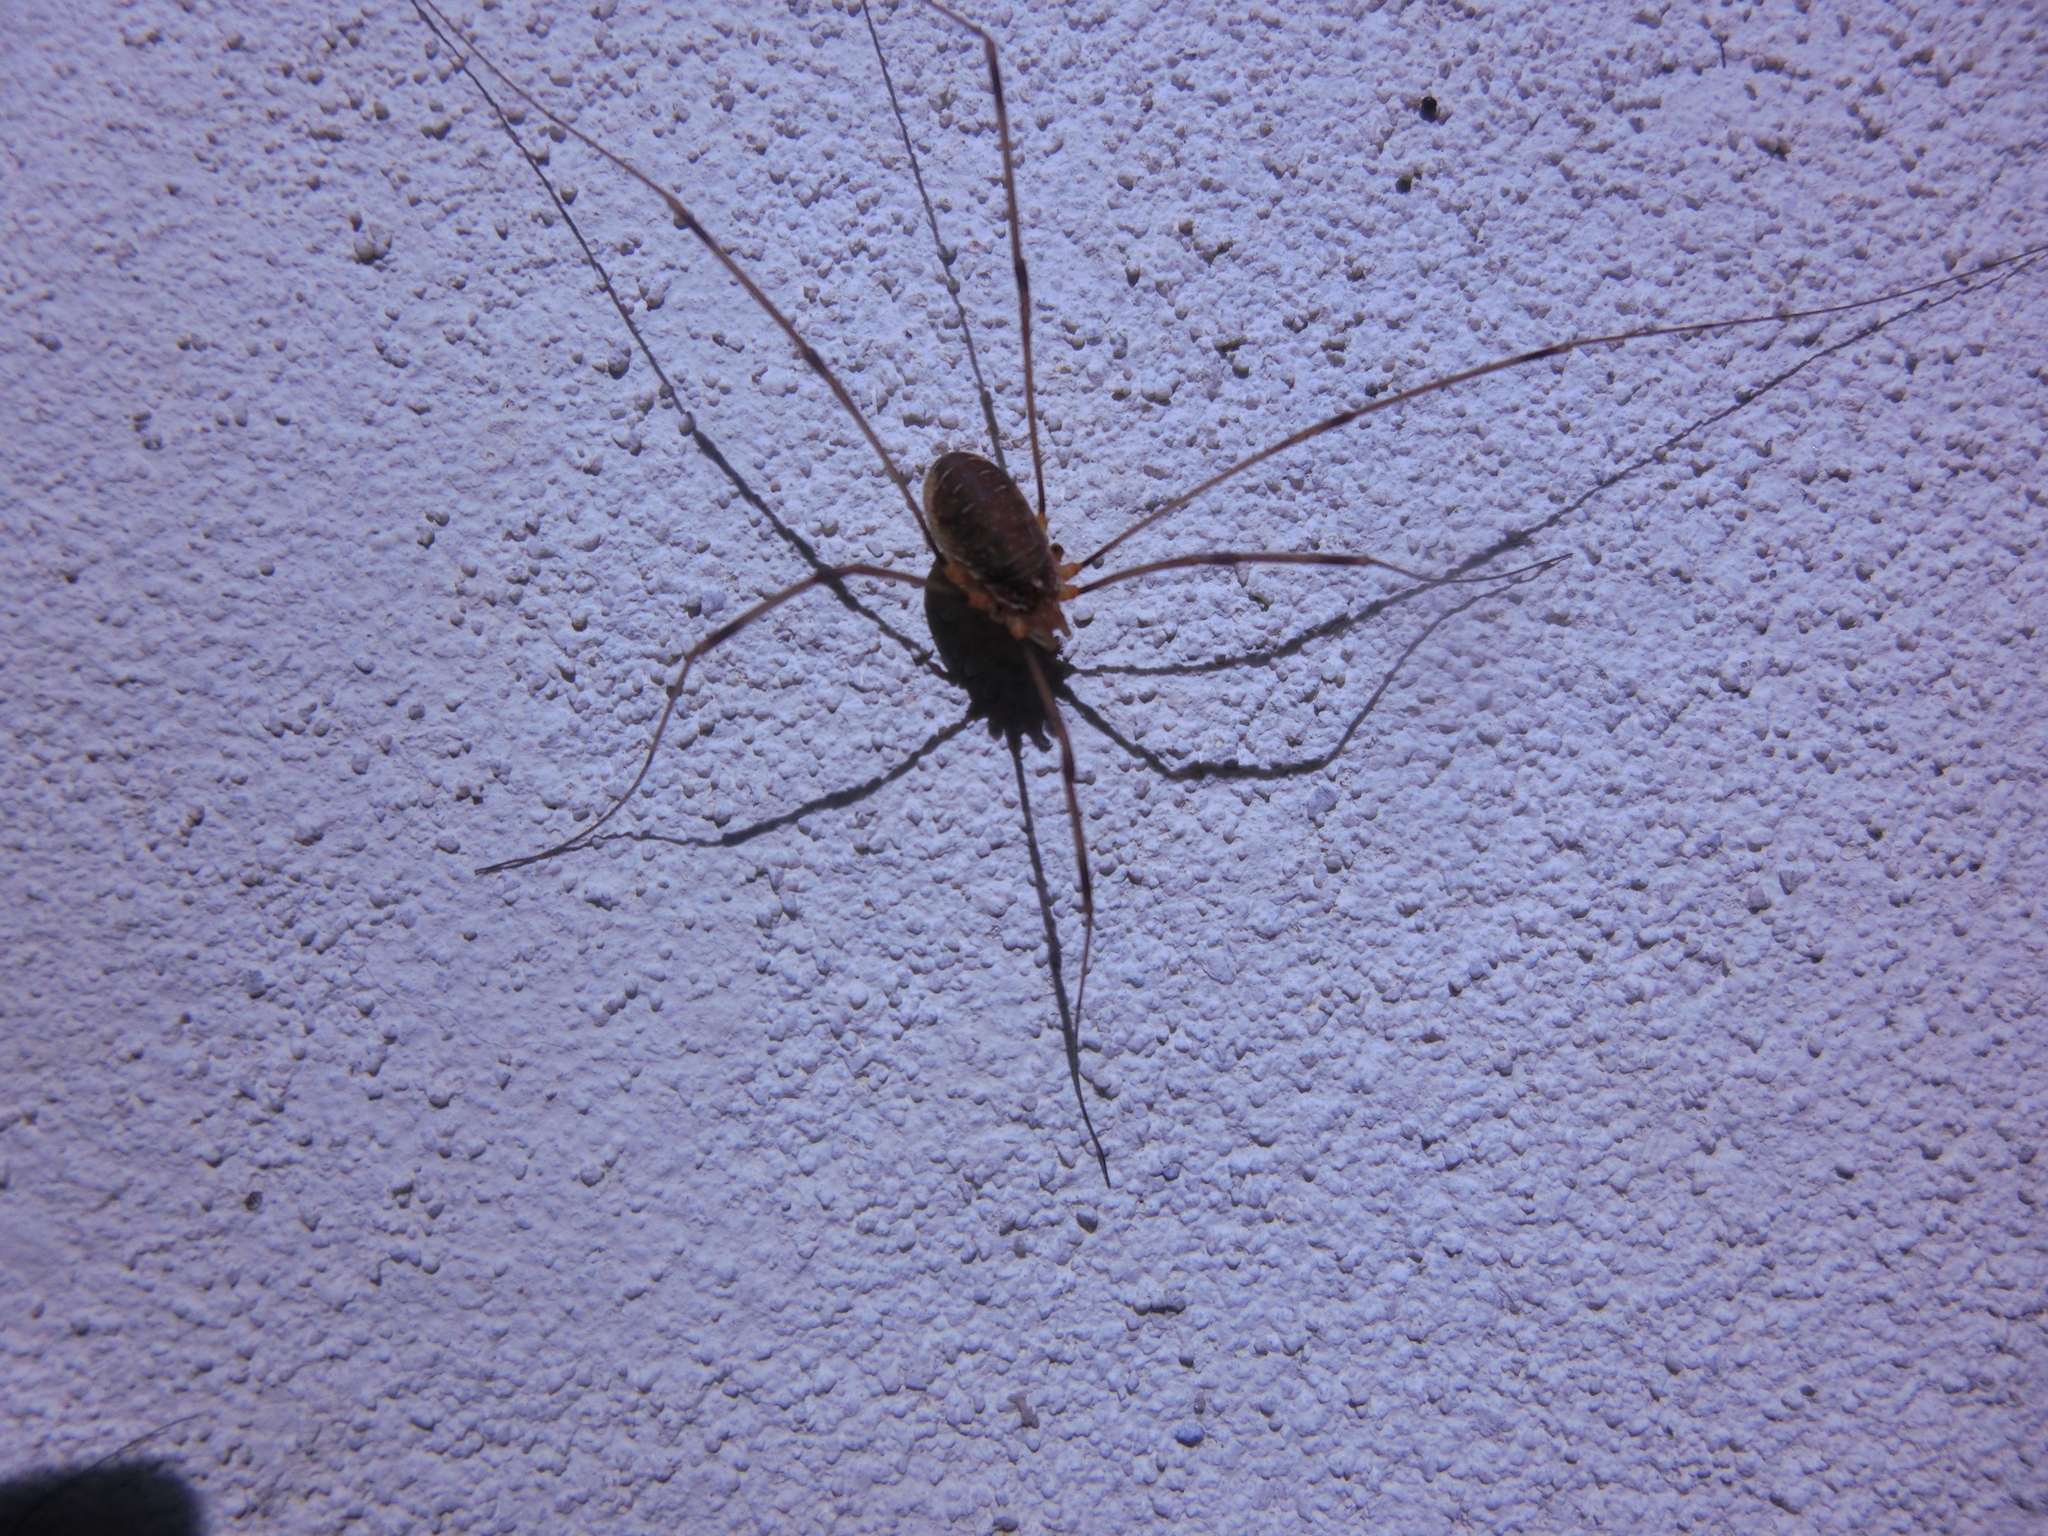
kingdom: Animalia
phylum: Arthropoda
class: Arachnida
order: Opiliones
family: Phalangiidae
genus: Opilio
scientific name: Opilio canestrinii
